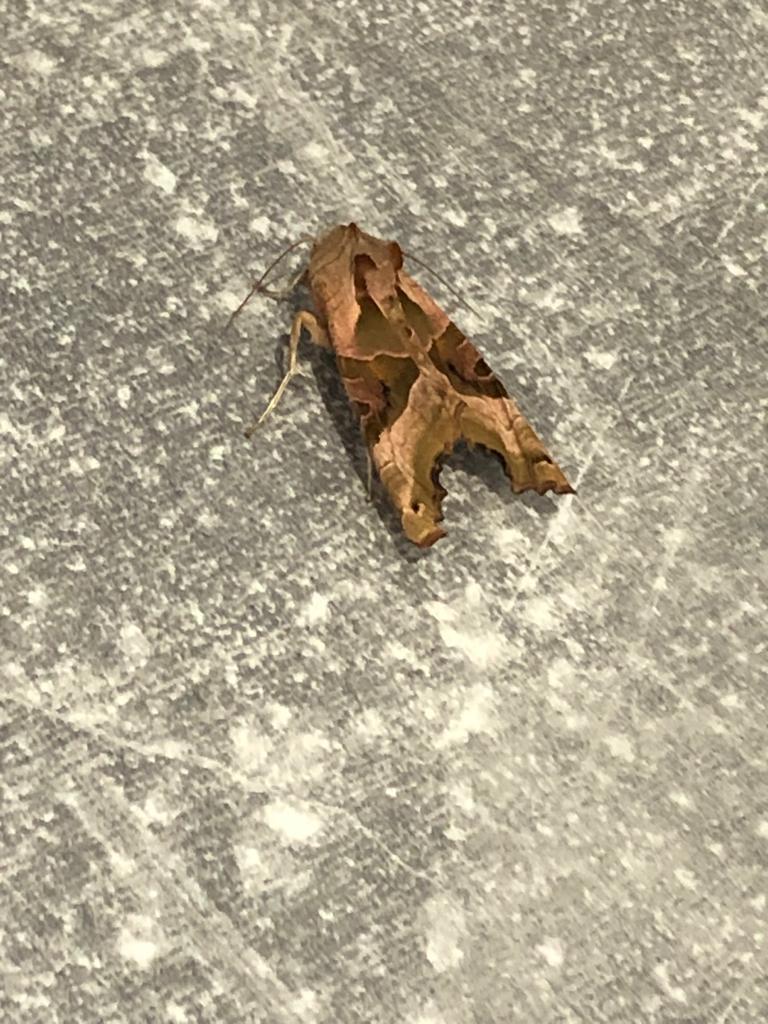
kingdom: Animalia
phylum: Arthropoda
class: Insecta
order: Lepidoptera
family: Noctuidae
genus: Phlogophora
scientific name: Phlogophora meticulosa
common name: Angle shades
